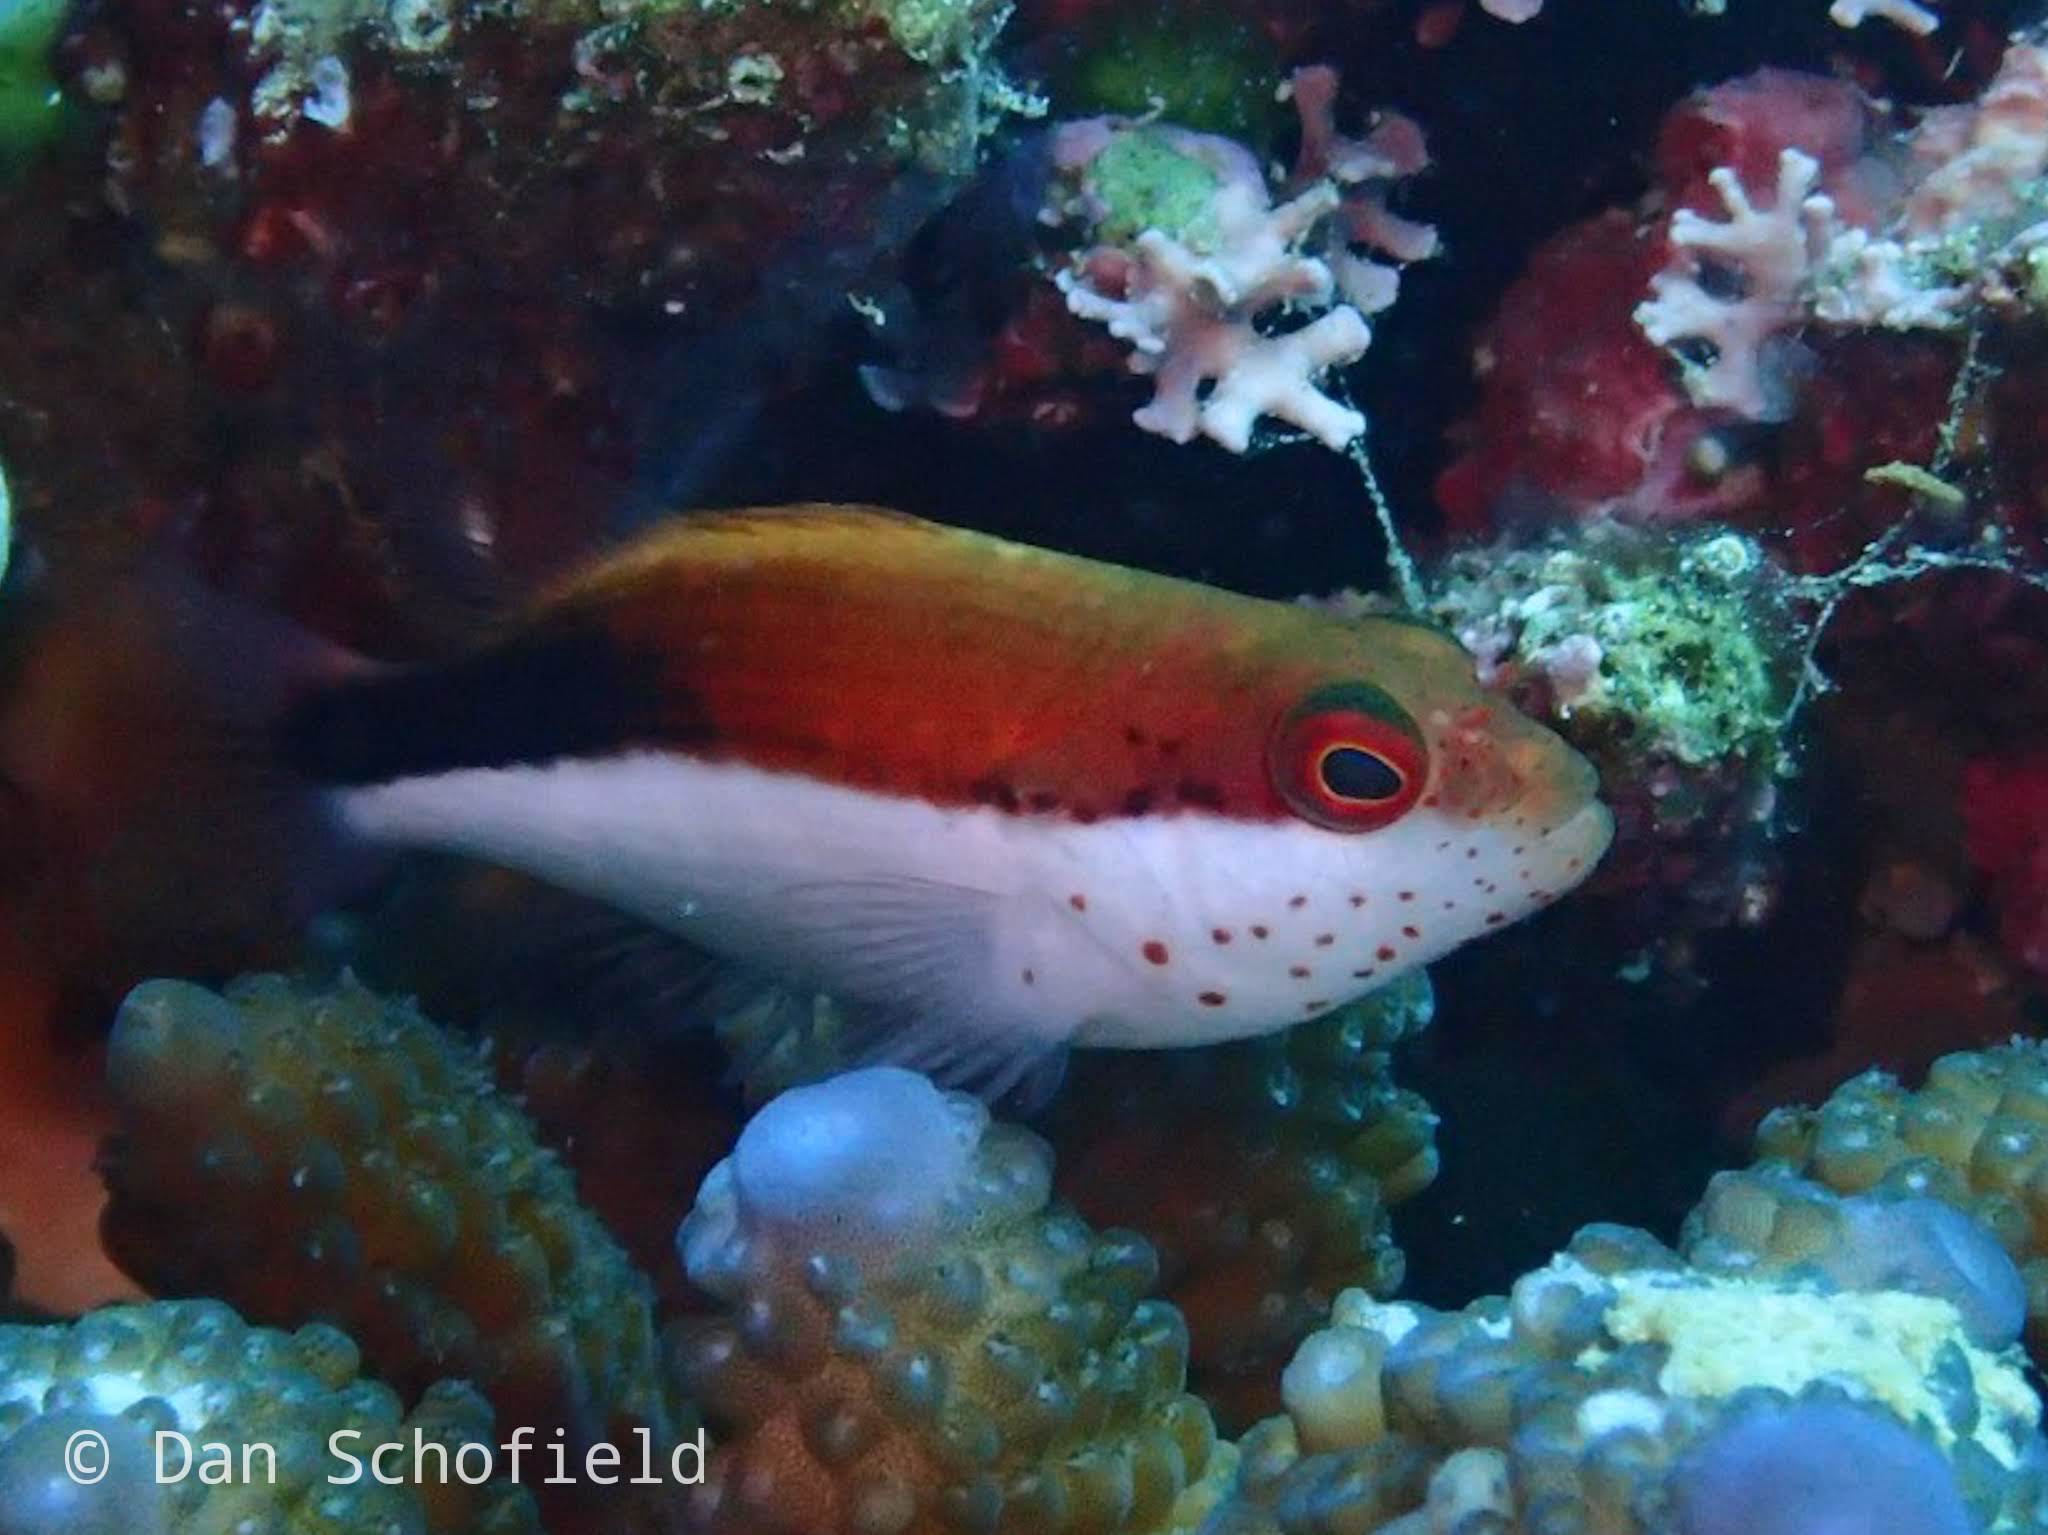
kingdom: Animalia
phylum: Chordata
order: Perciformes
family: Cirrhitidae
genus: Paracirrhites
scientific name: Paracirrhites forsteri
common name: Freckled hawkfish
